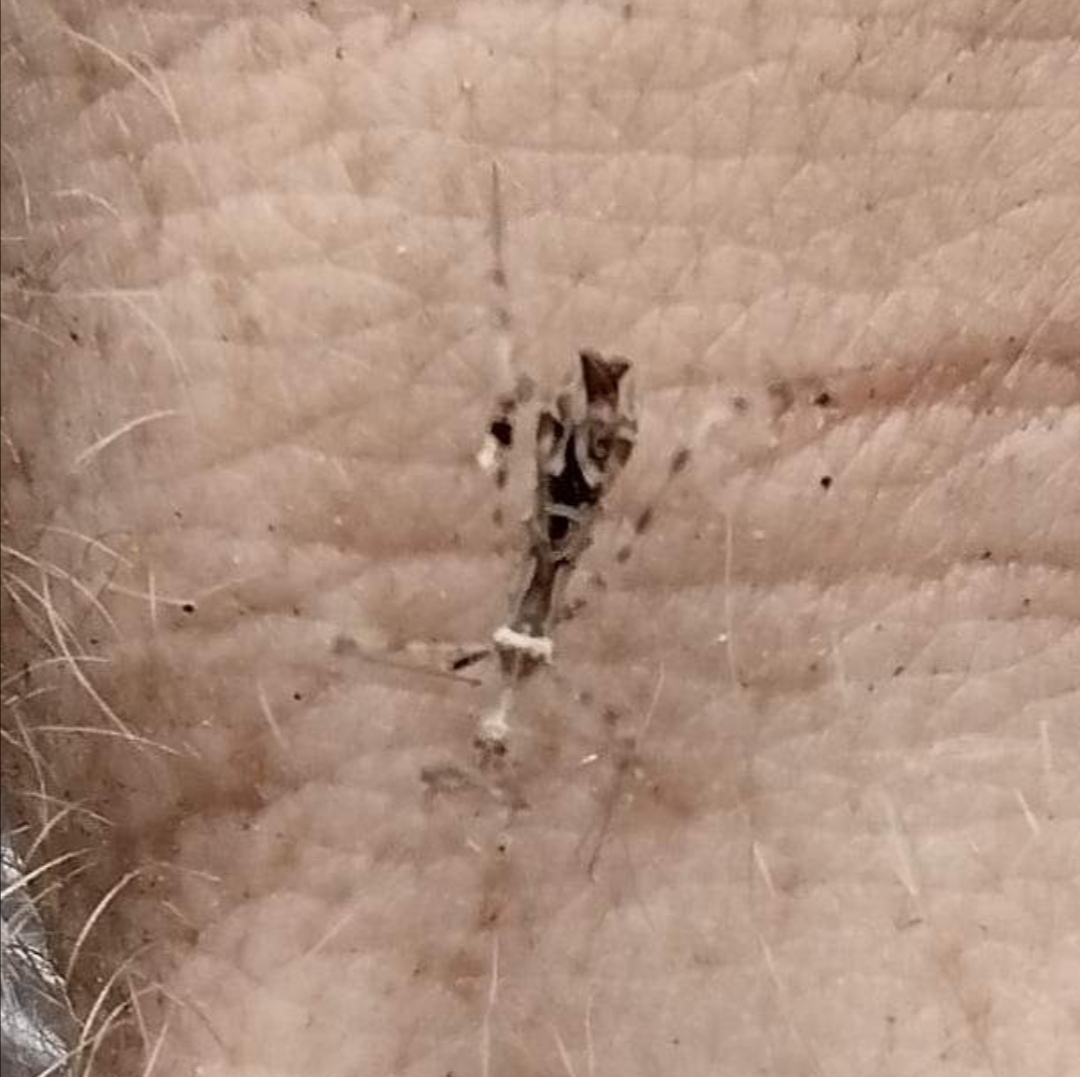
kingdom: Animalia
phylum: Arthropoda
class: Insecta
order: Hemiptera
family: Reduviidae
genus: Stenolemus
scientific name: Stenolemus fraterculus
